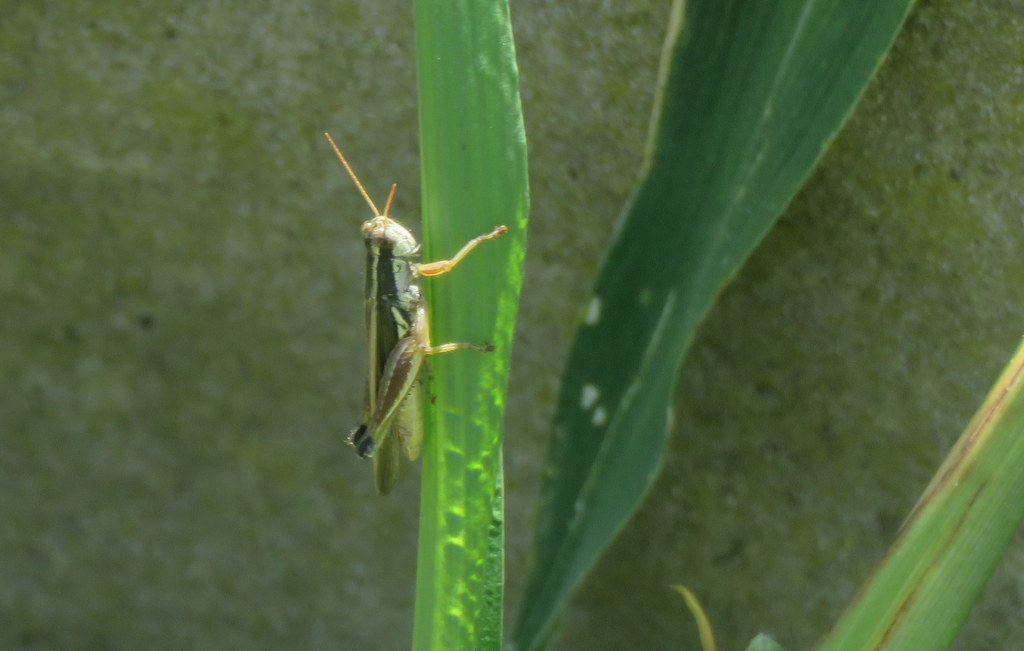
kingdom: Animalia
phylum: Arthropoda
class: Insecta
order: Orthoptera
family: Acrididae
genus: Dichroplus
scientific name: Dichroplus elongatus
